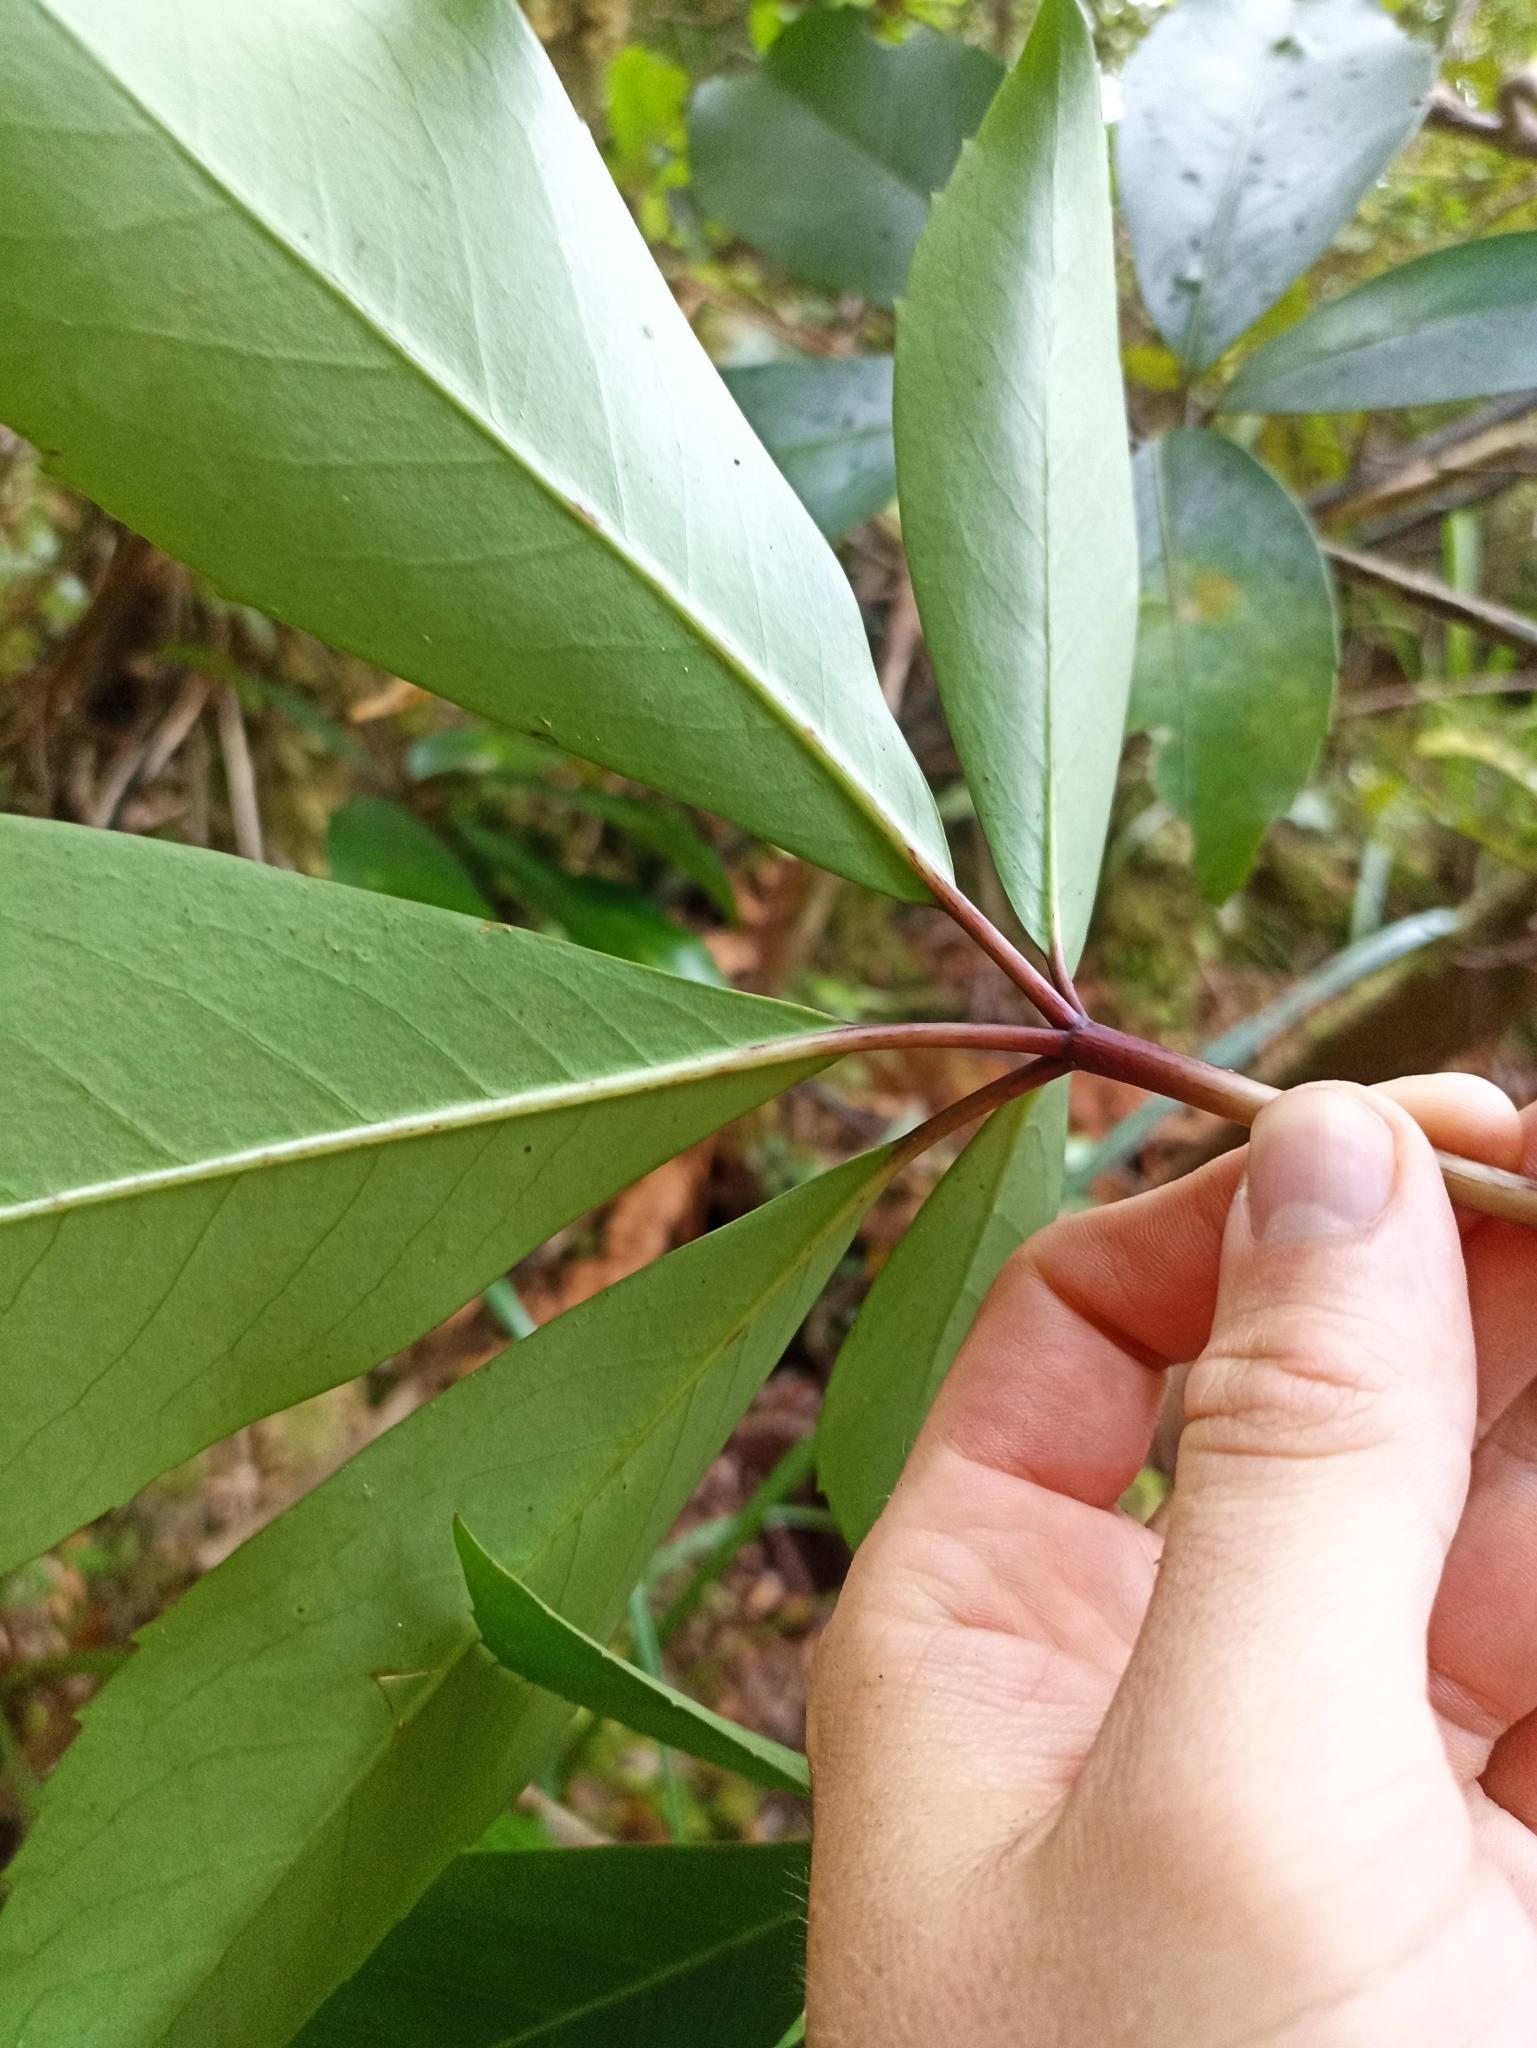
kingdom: Plantae
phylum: Tracheophyta
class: Magnoliopsida
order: Apiales
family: Araliaceae
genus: Neopanax
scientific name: Neopanax laetus
